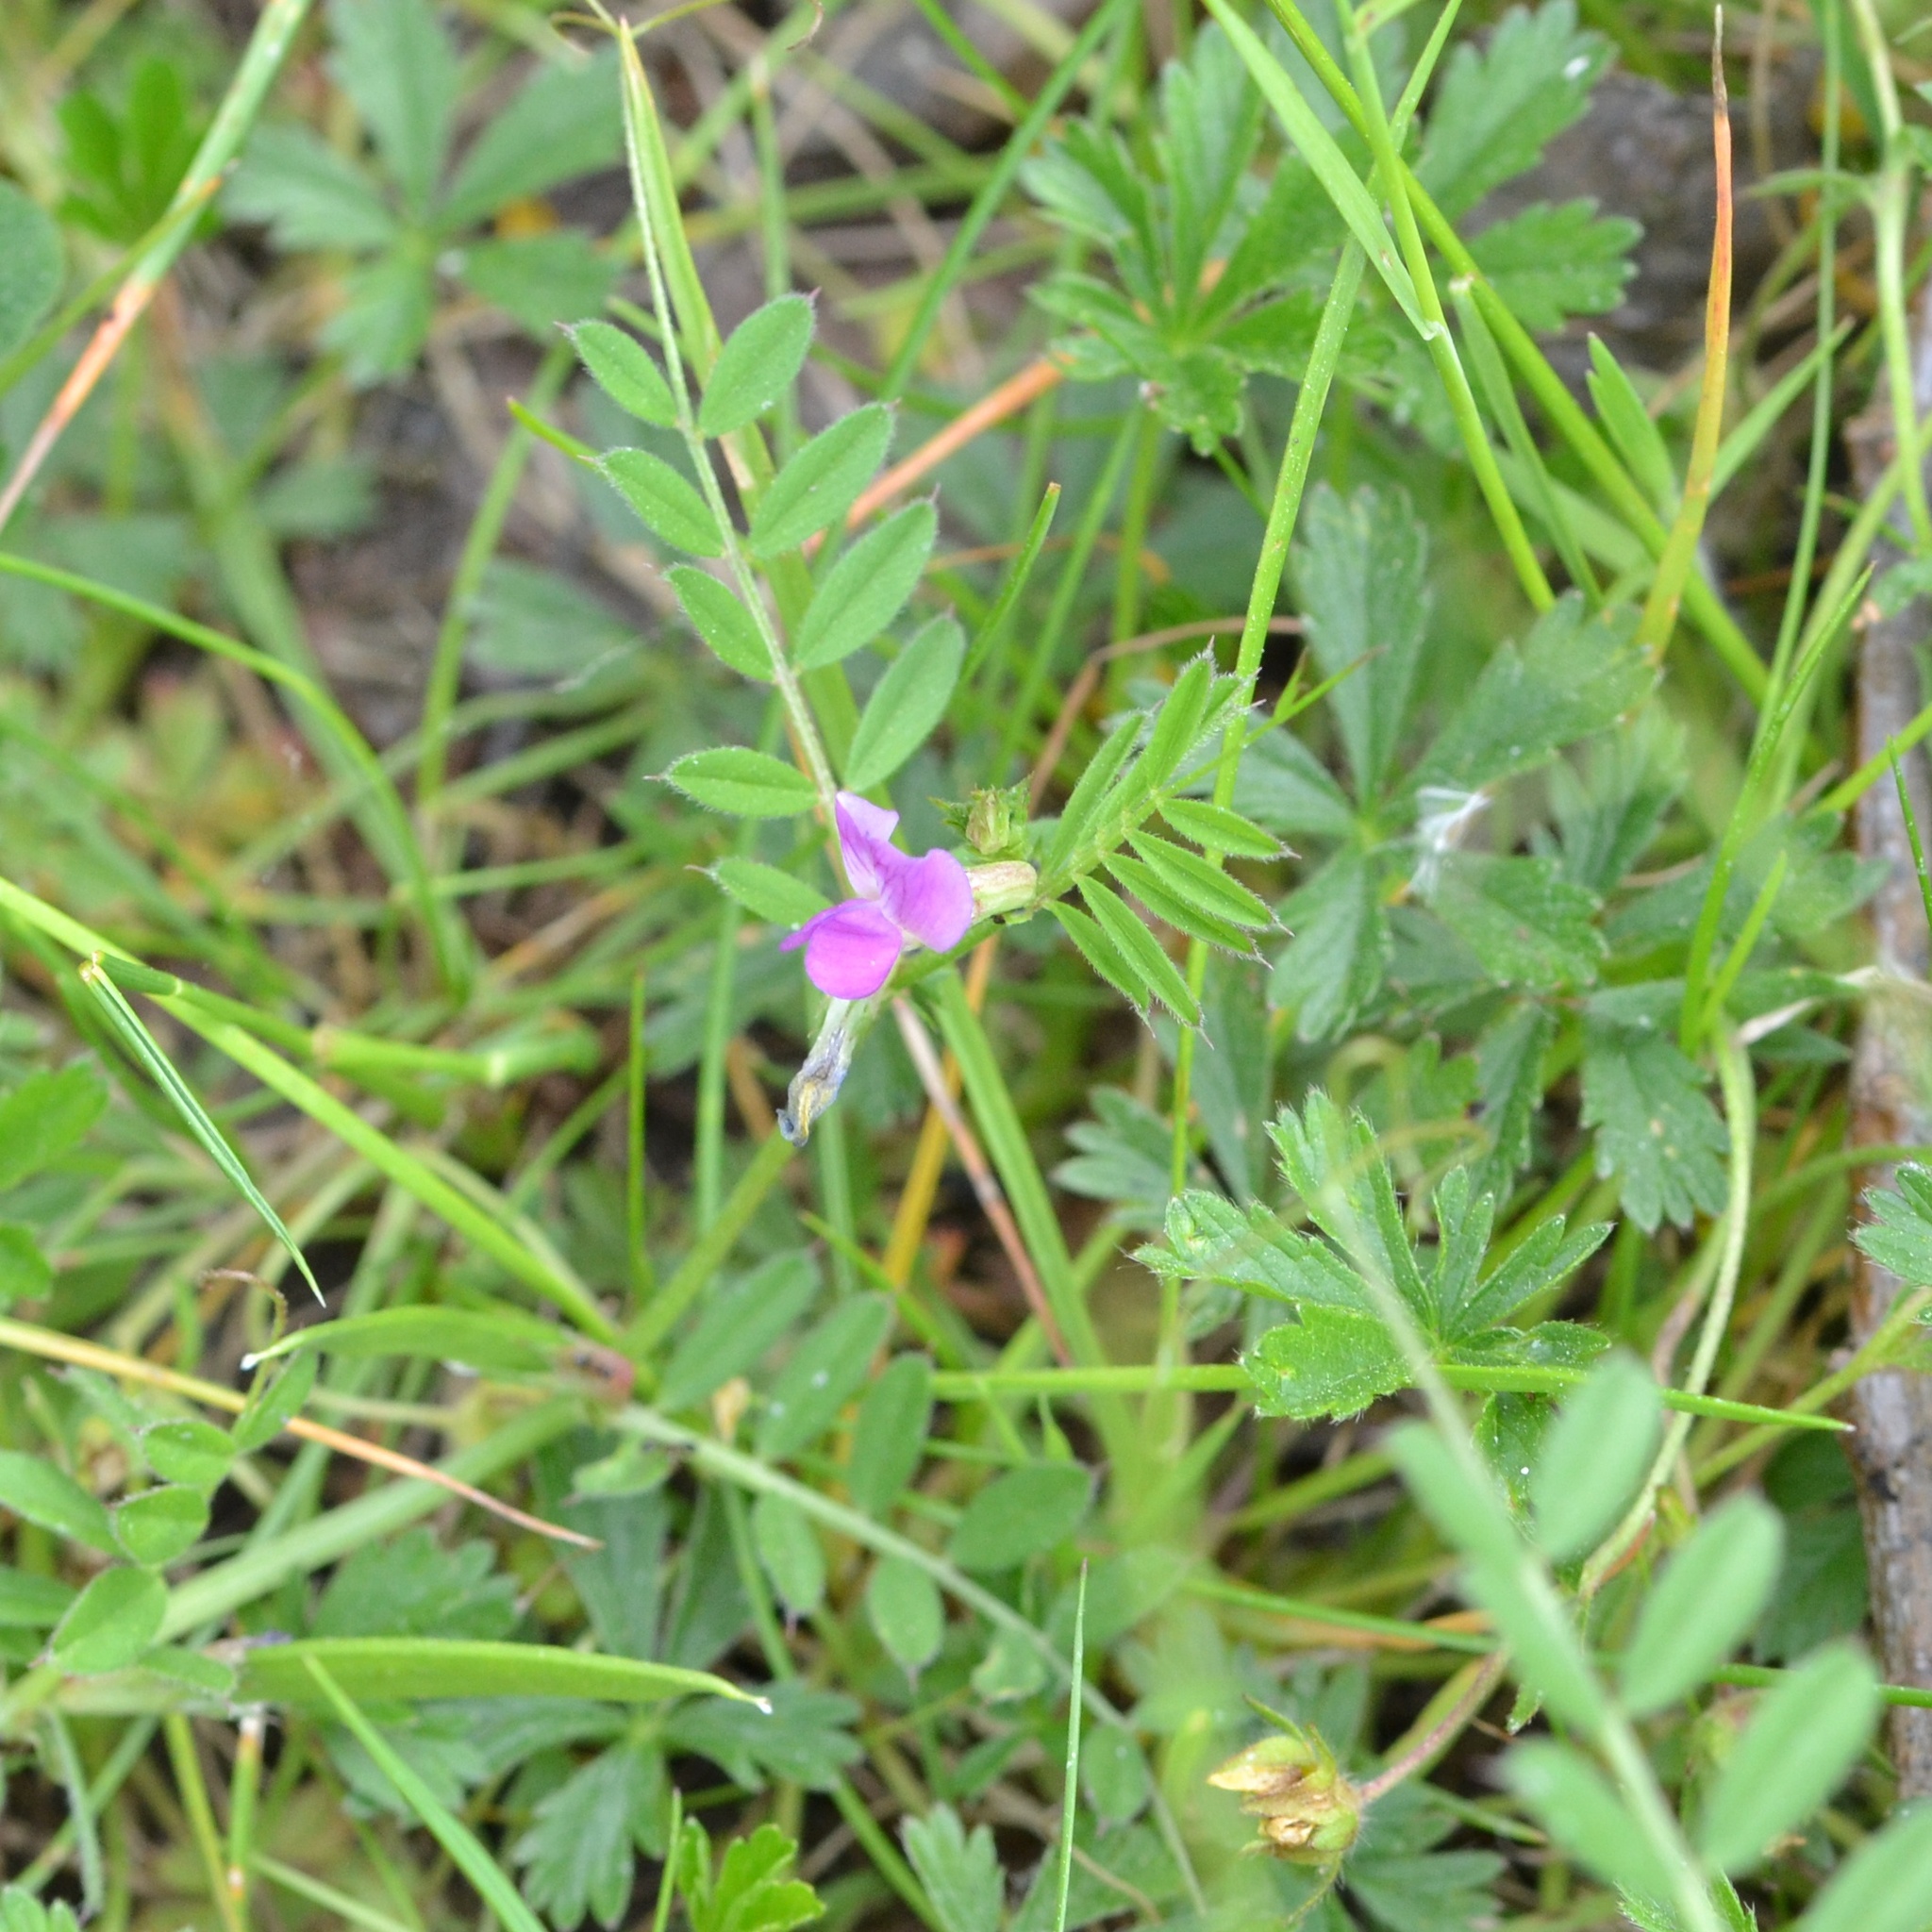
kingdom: Plantae
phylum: Tracheophyta
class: Magnoliopsida
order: Fabales
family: Fabaceae
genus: Vicia
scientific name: Vicia sativa
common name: Garden vetch
